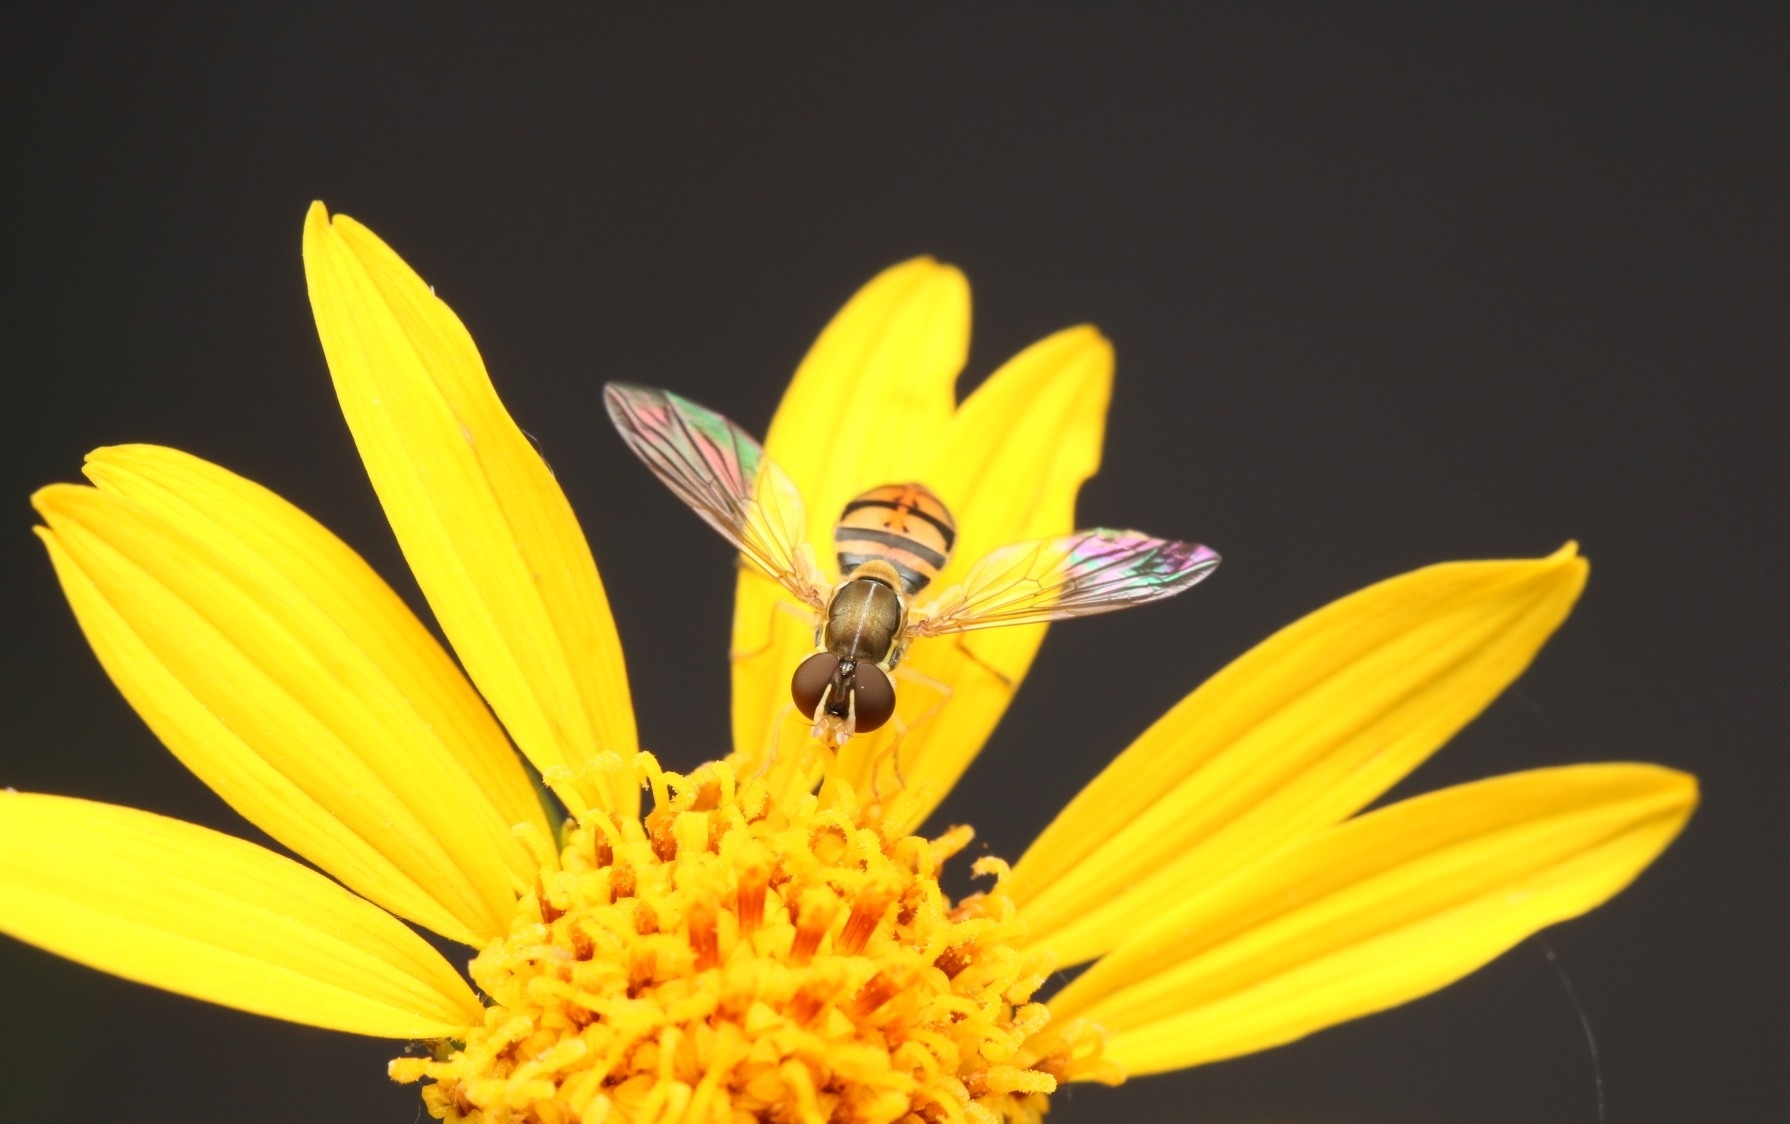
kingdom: Animalia
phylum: Arthropoda
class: Insecta
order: Diptera
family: Syrphidae
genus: Toxomerus
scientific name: Toxomerus marginatus
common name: Syrphid fly
